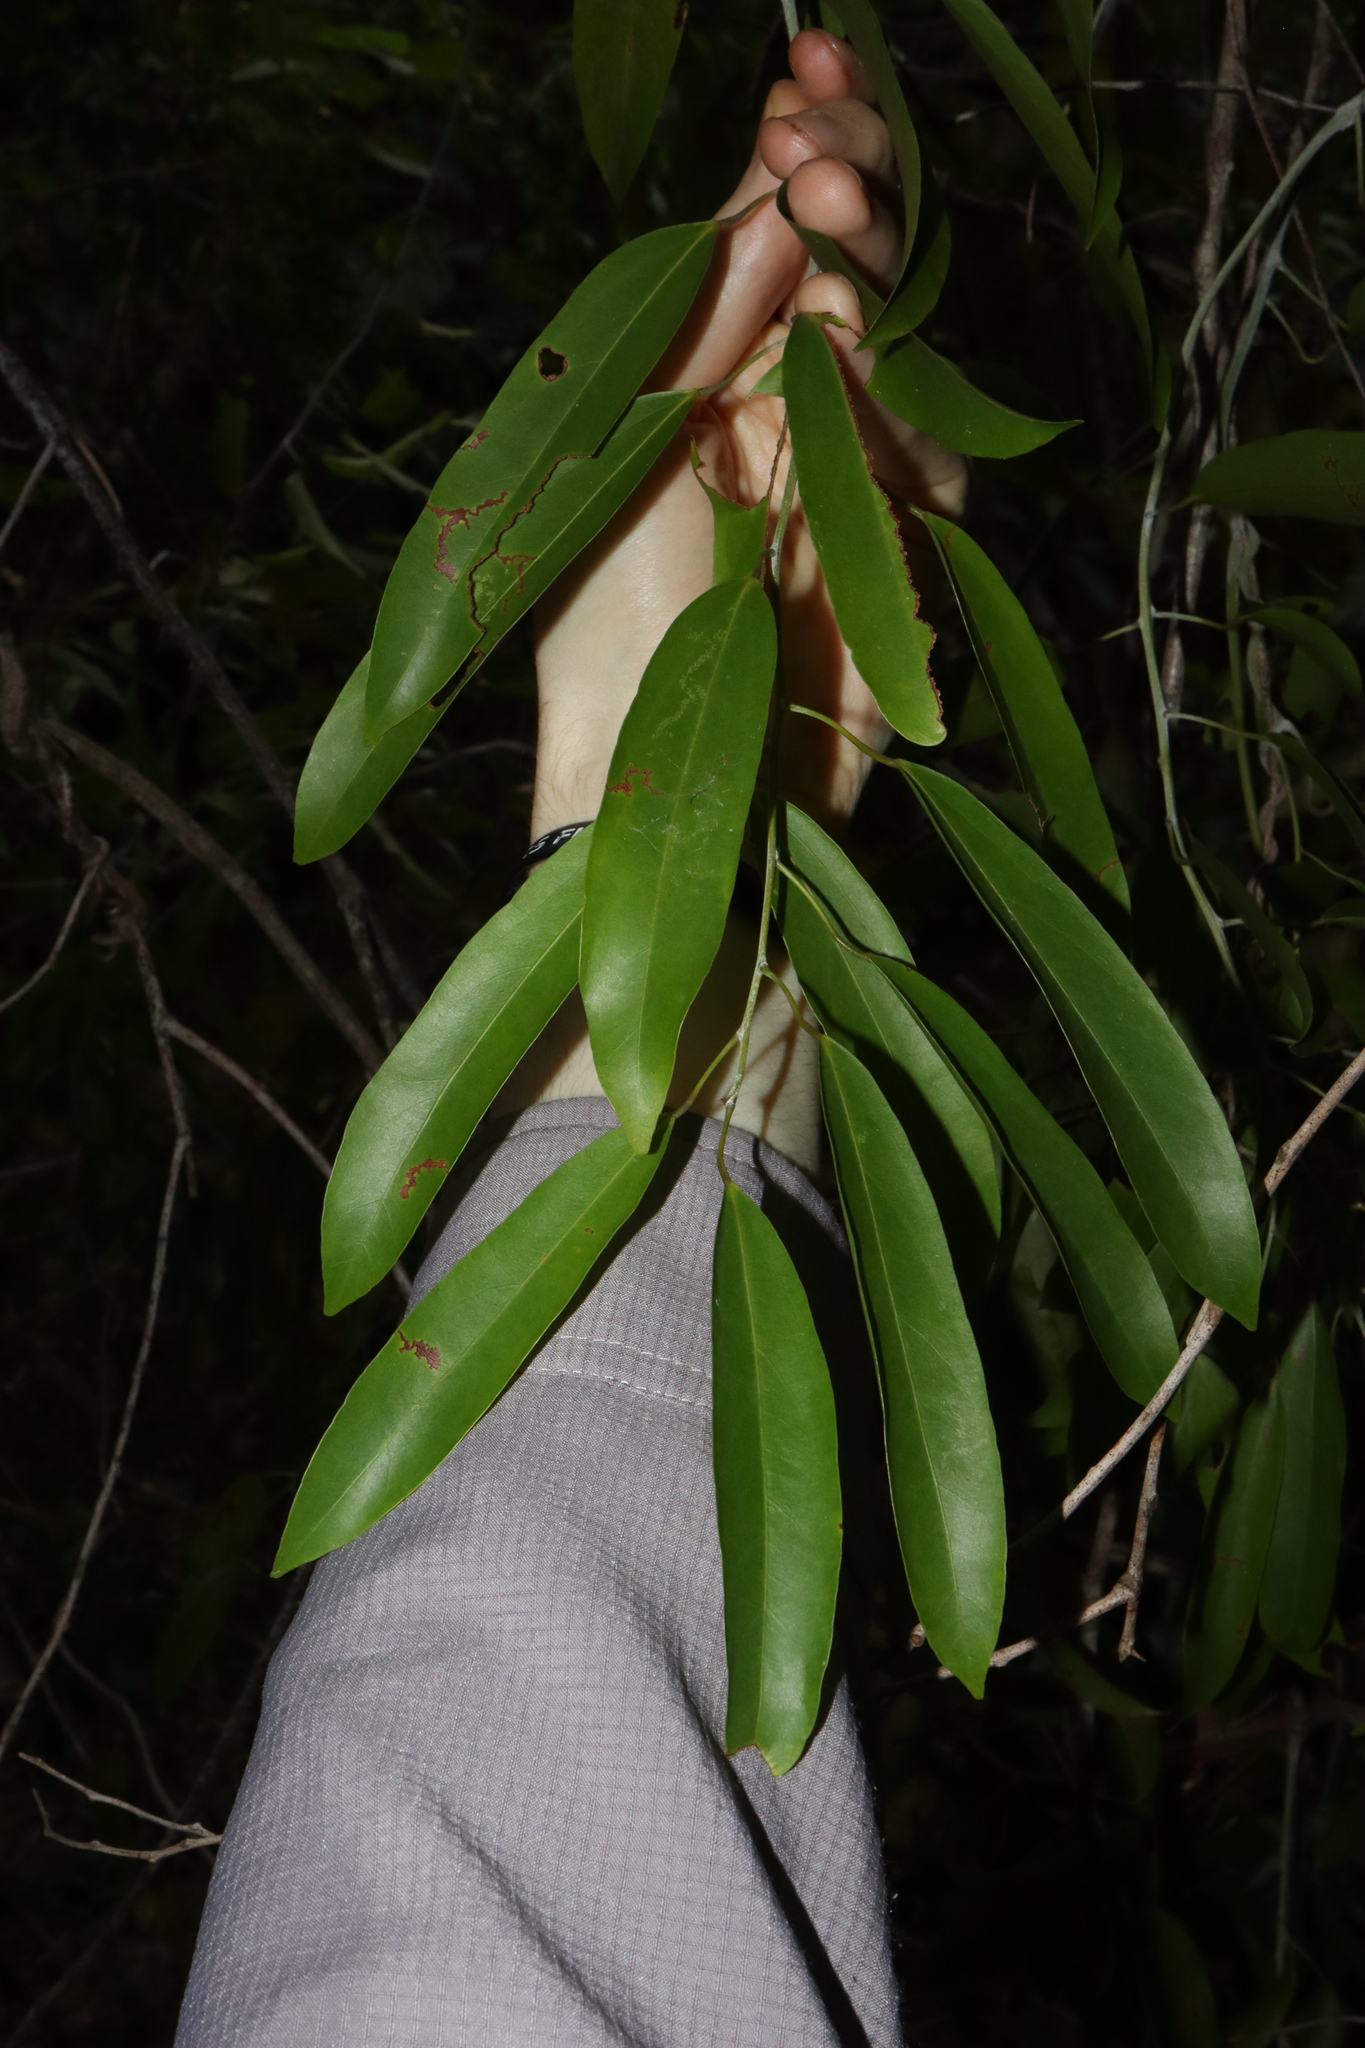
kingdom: Plantae
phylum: Tracheophyta
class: Magnoliopsida
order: Ranunculales
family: Menispermaceae
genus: Hypserpa
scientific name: Hypserpa laurina
